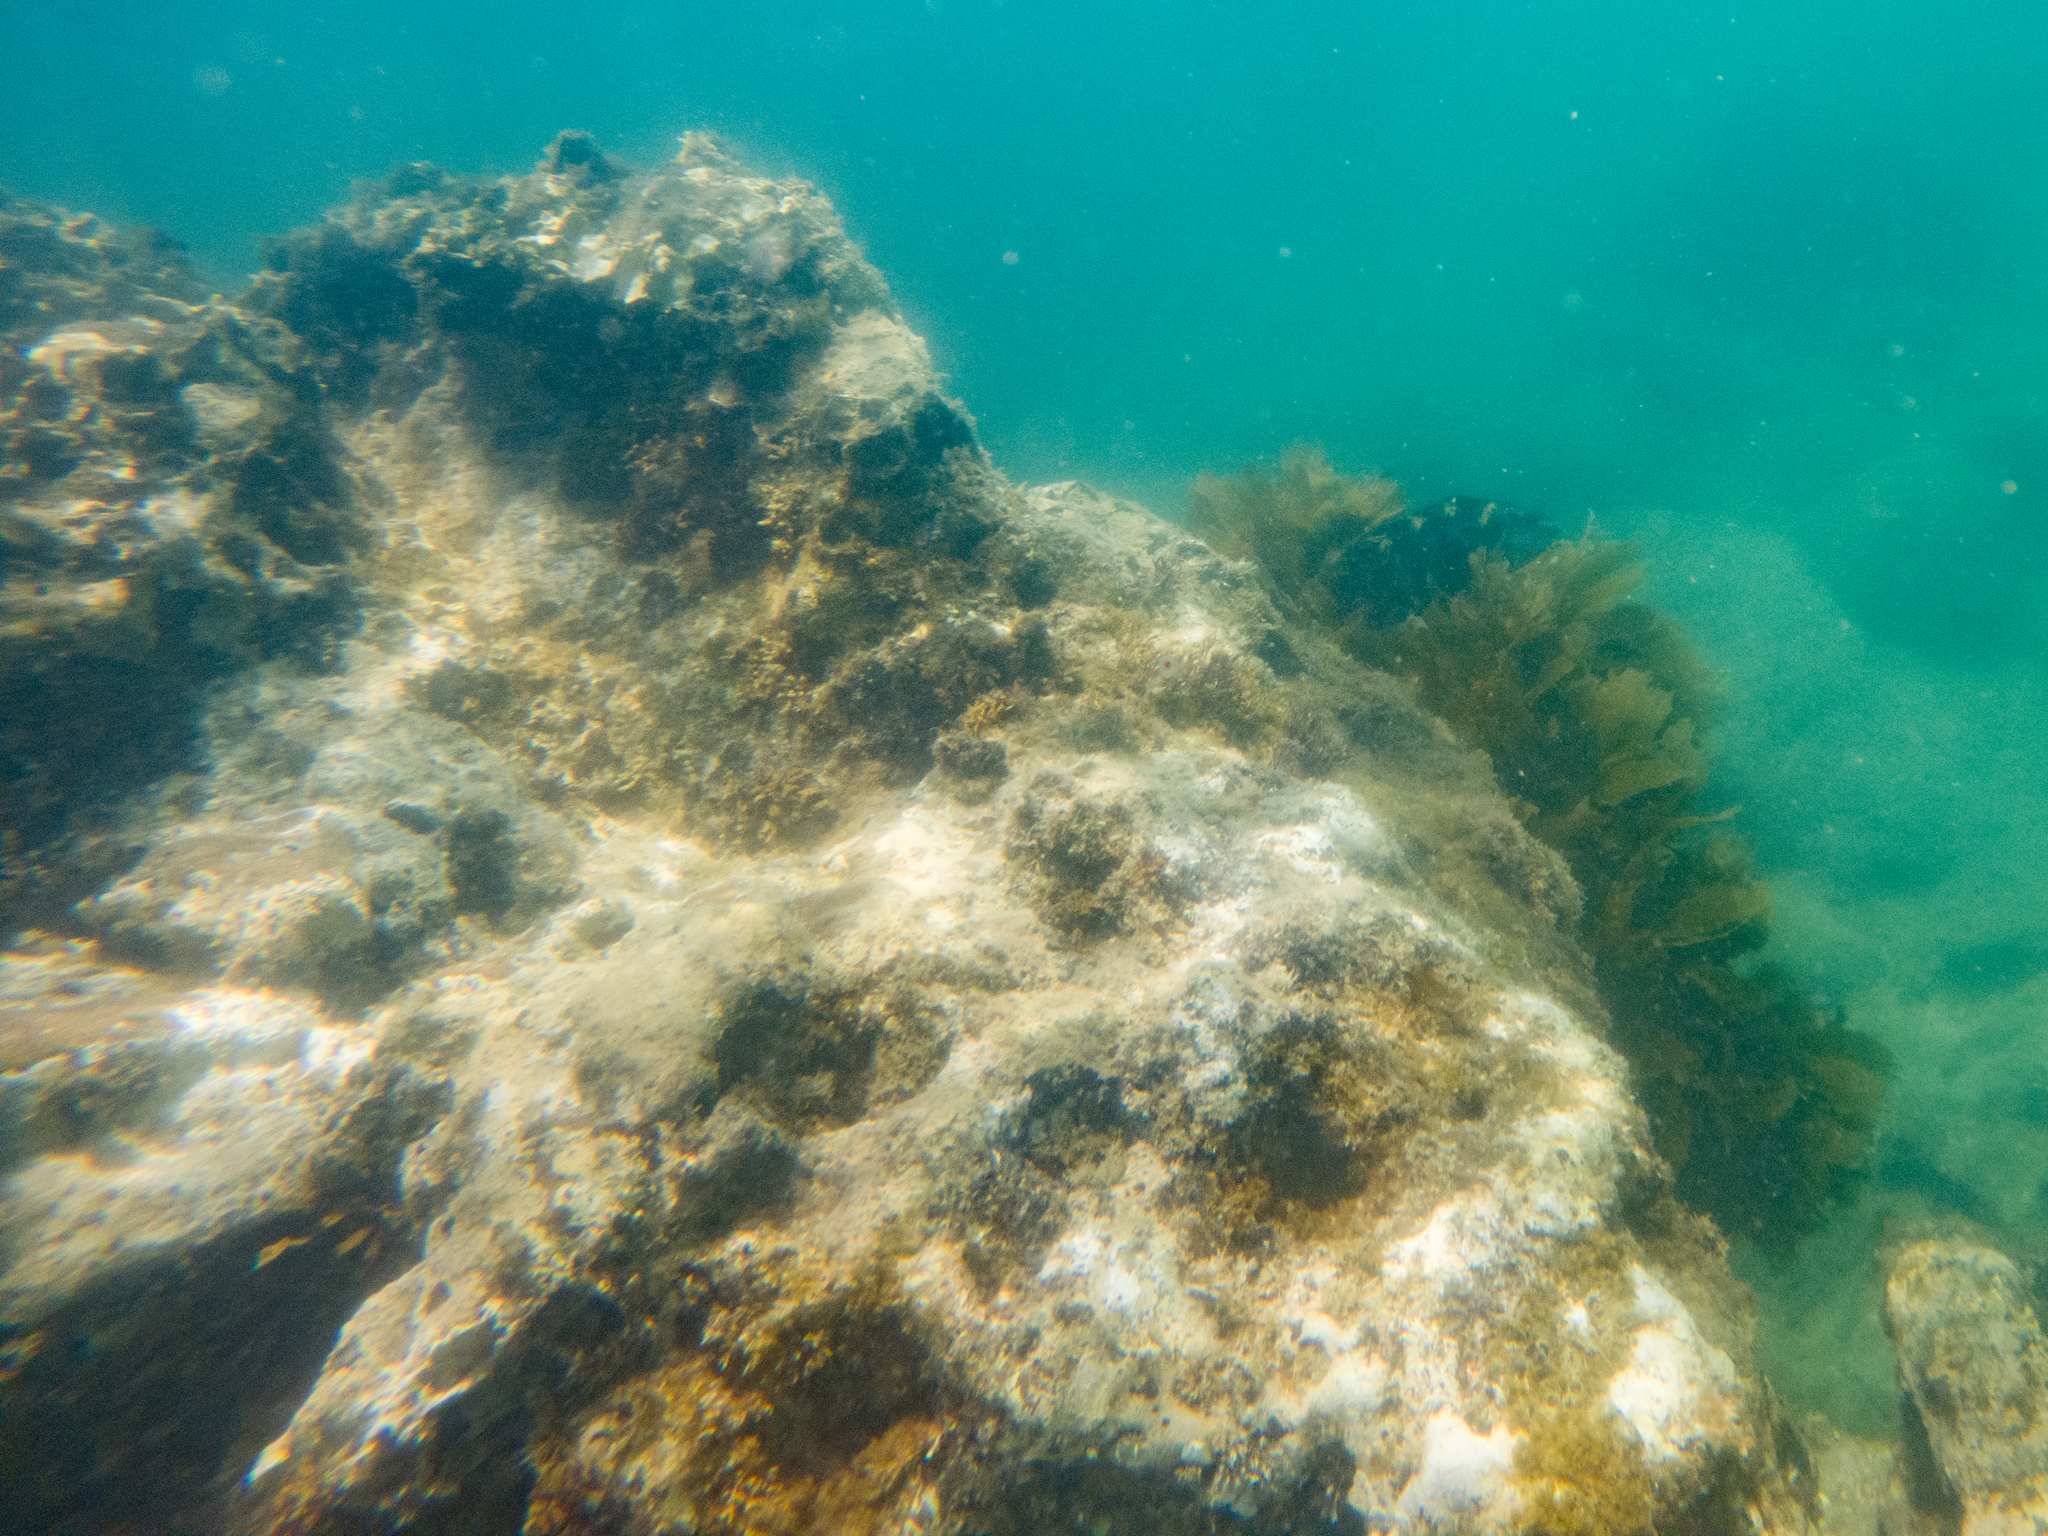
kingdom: Animalia
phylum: Chordata
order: Perciformes
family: Labridae
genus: Notolabrus
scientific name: Notolabrus fucicola
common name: Banded parrotfish
